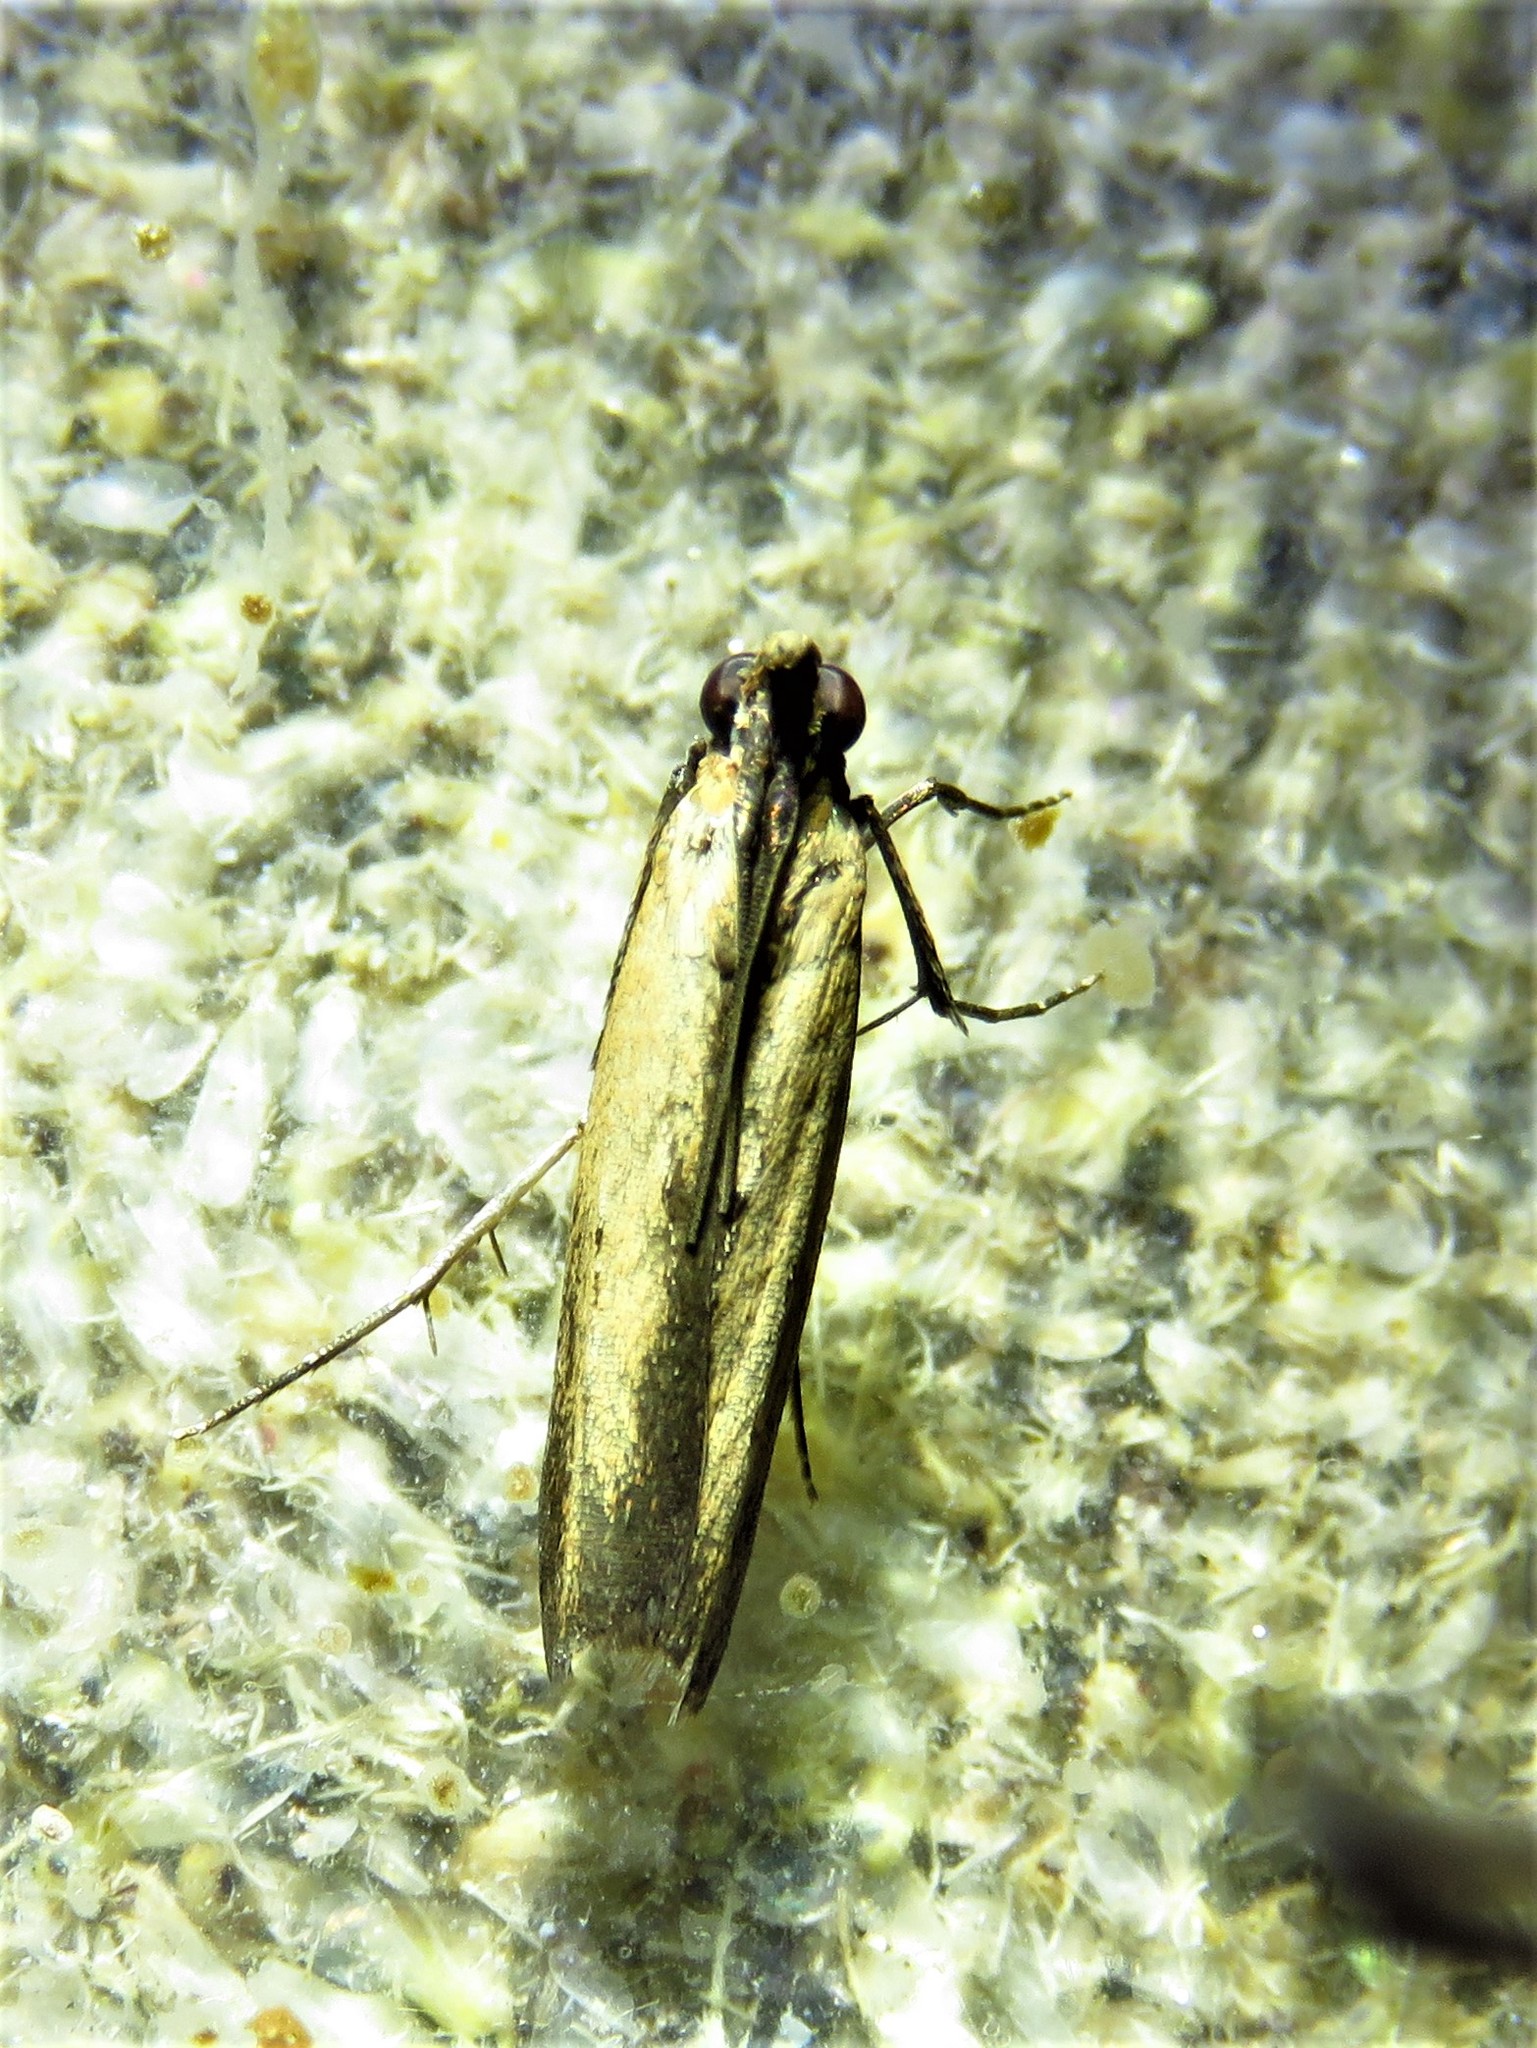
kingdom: Animalia
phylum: Arthropoda
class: Insecta
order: Lepidoptera
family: Pyralidae
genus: Elasmopalpus
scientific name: Elasmopalpus lignosella
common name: Lesser cornstalk borer
